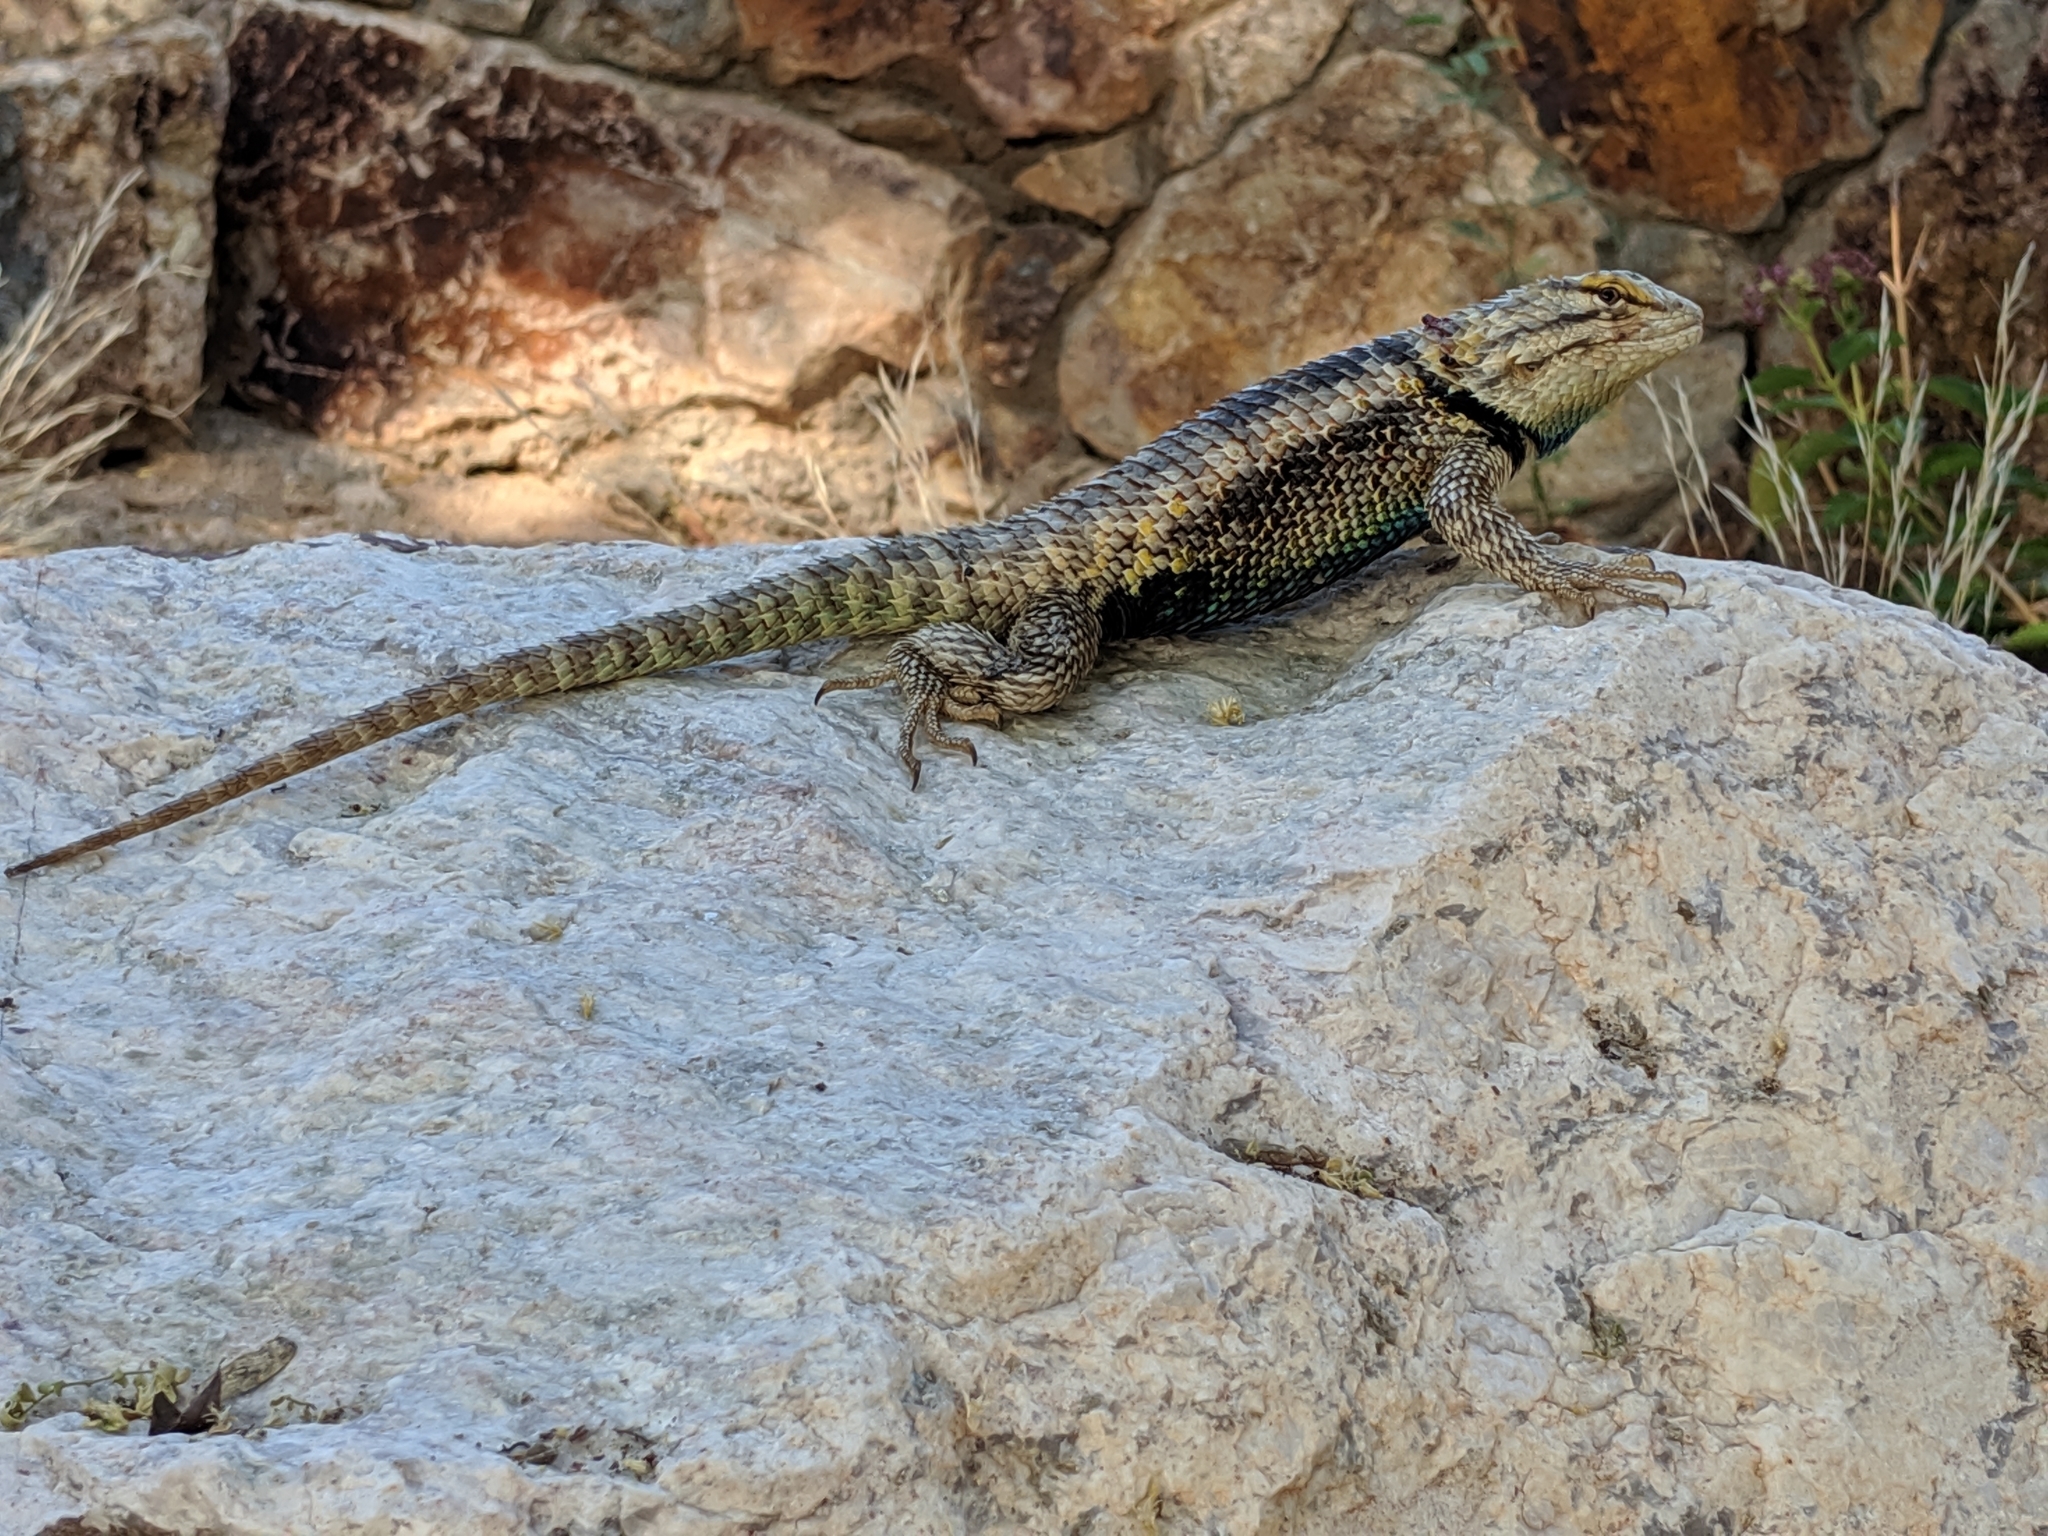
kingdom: Animalia
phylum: Chordata
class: Squamata
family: Phrynosomatidae
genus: Sceloporus
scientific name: Sceloporus magister
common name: Desert spiny lizard
